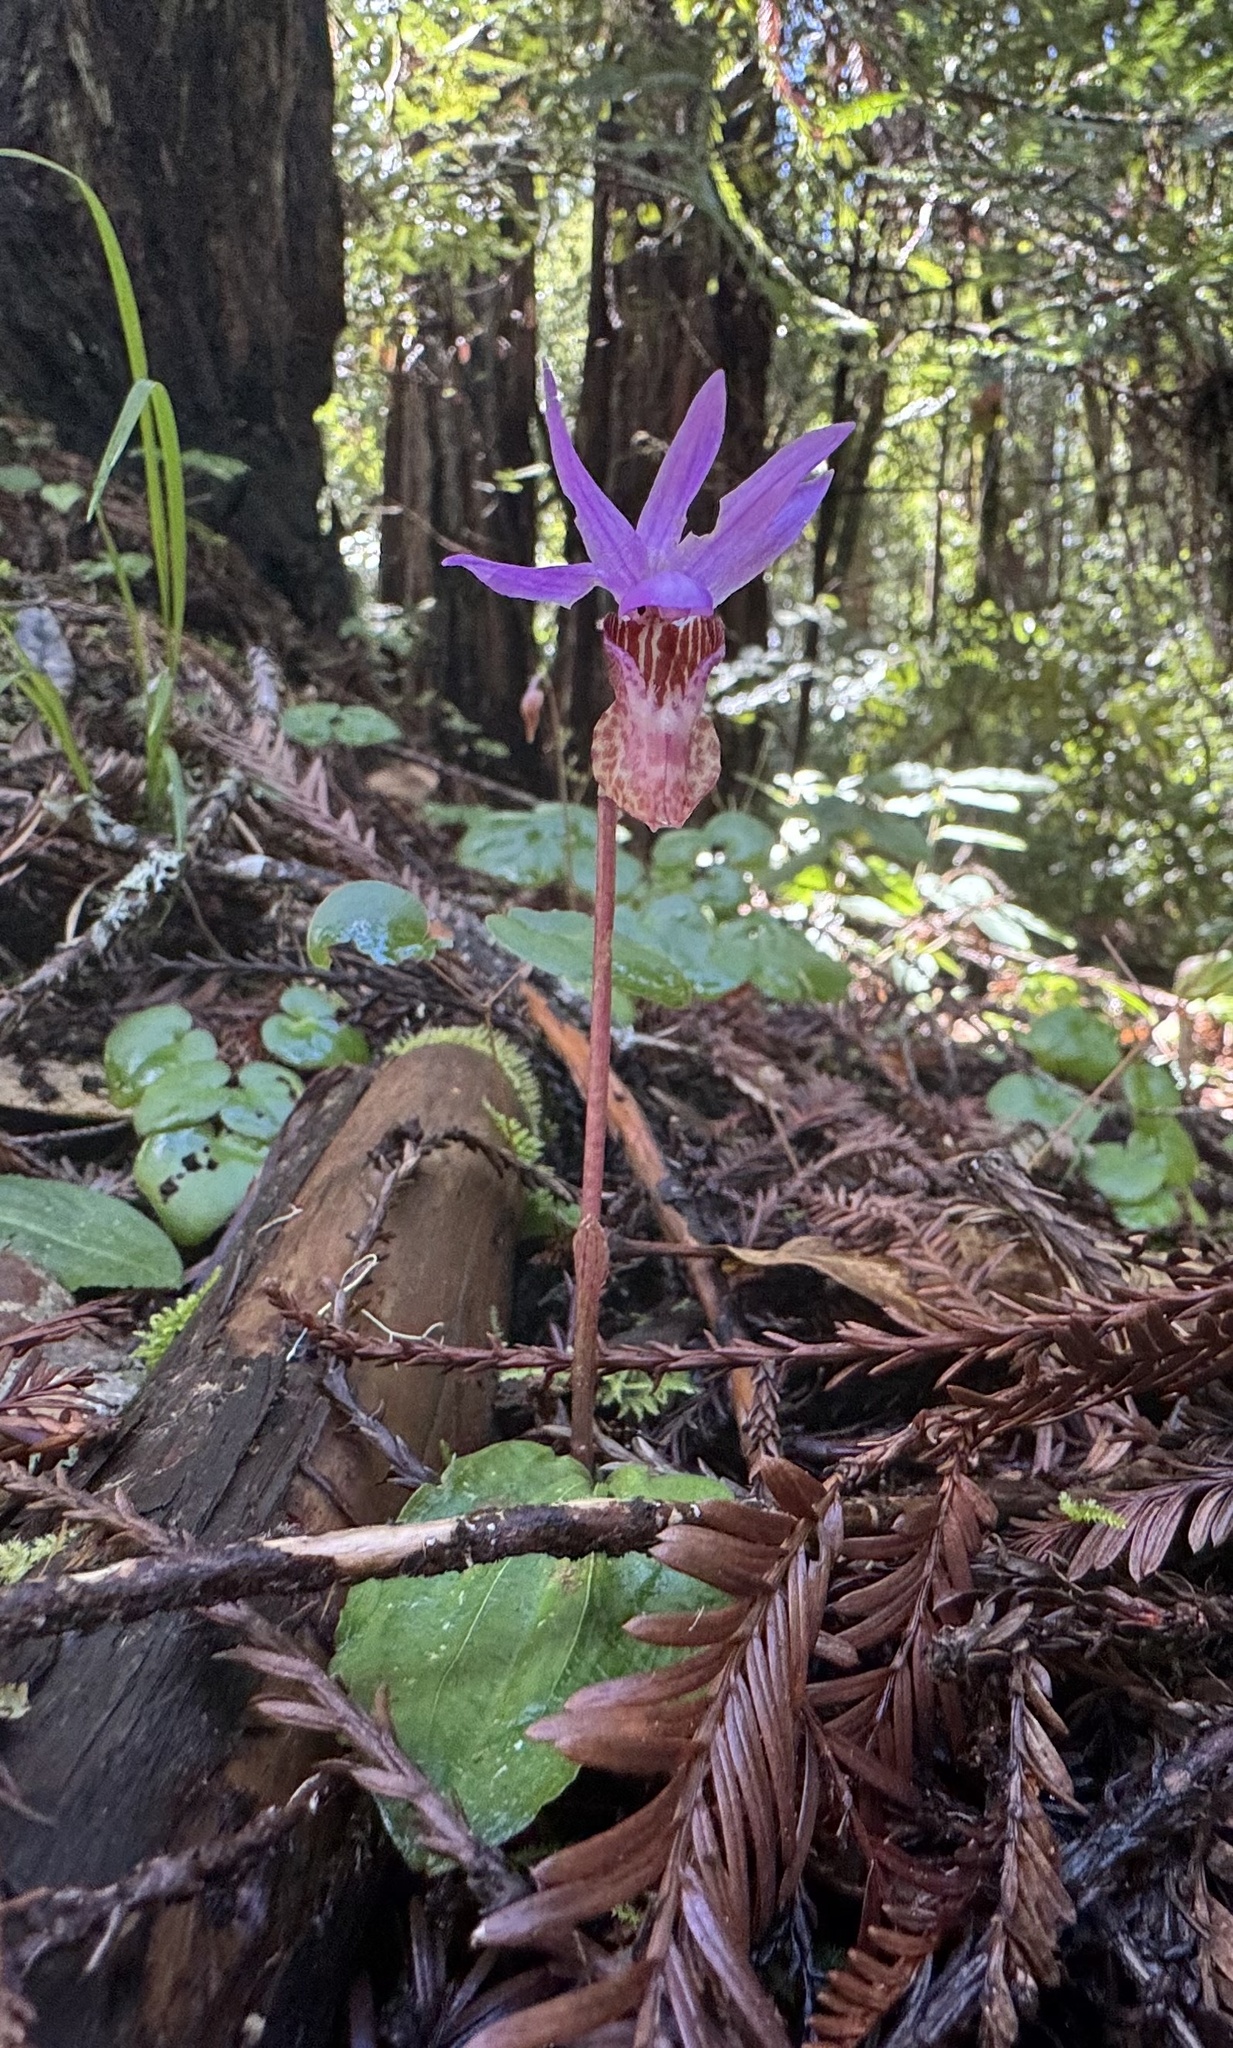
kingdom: Plantae
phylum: Tracheophyta
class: Liliopsida
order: Asparagales
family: Orchidaceae
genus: Calypso
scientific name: Calypso bulbosa
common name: Calypso
